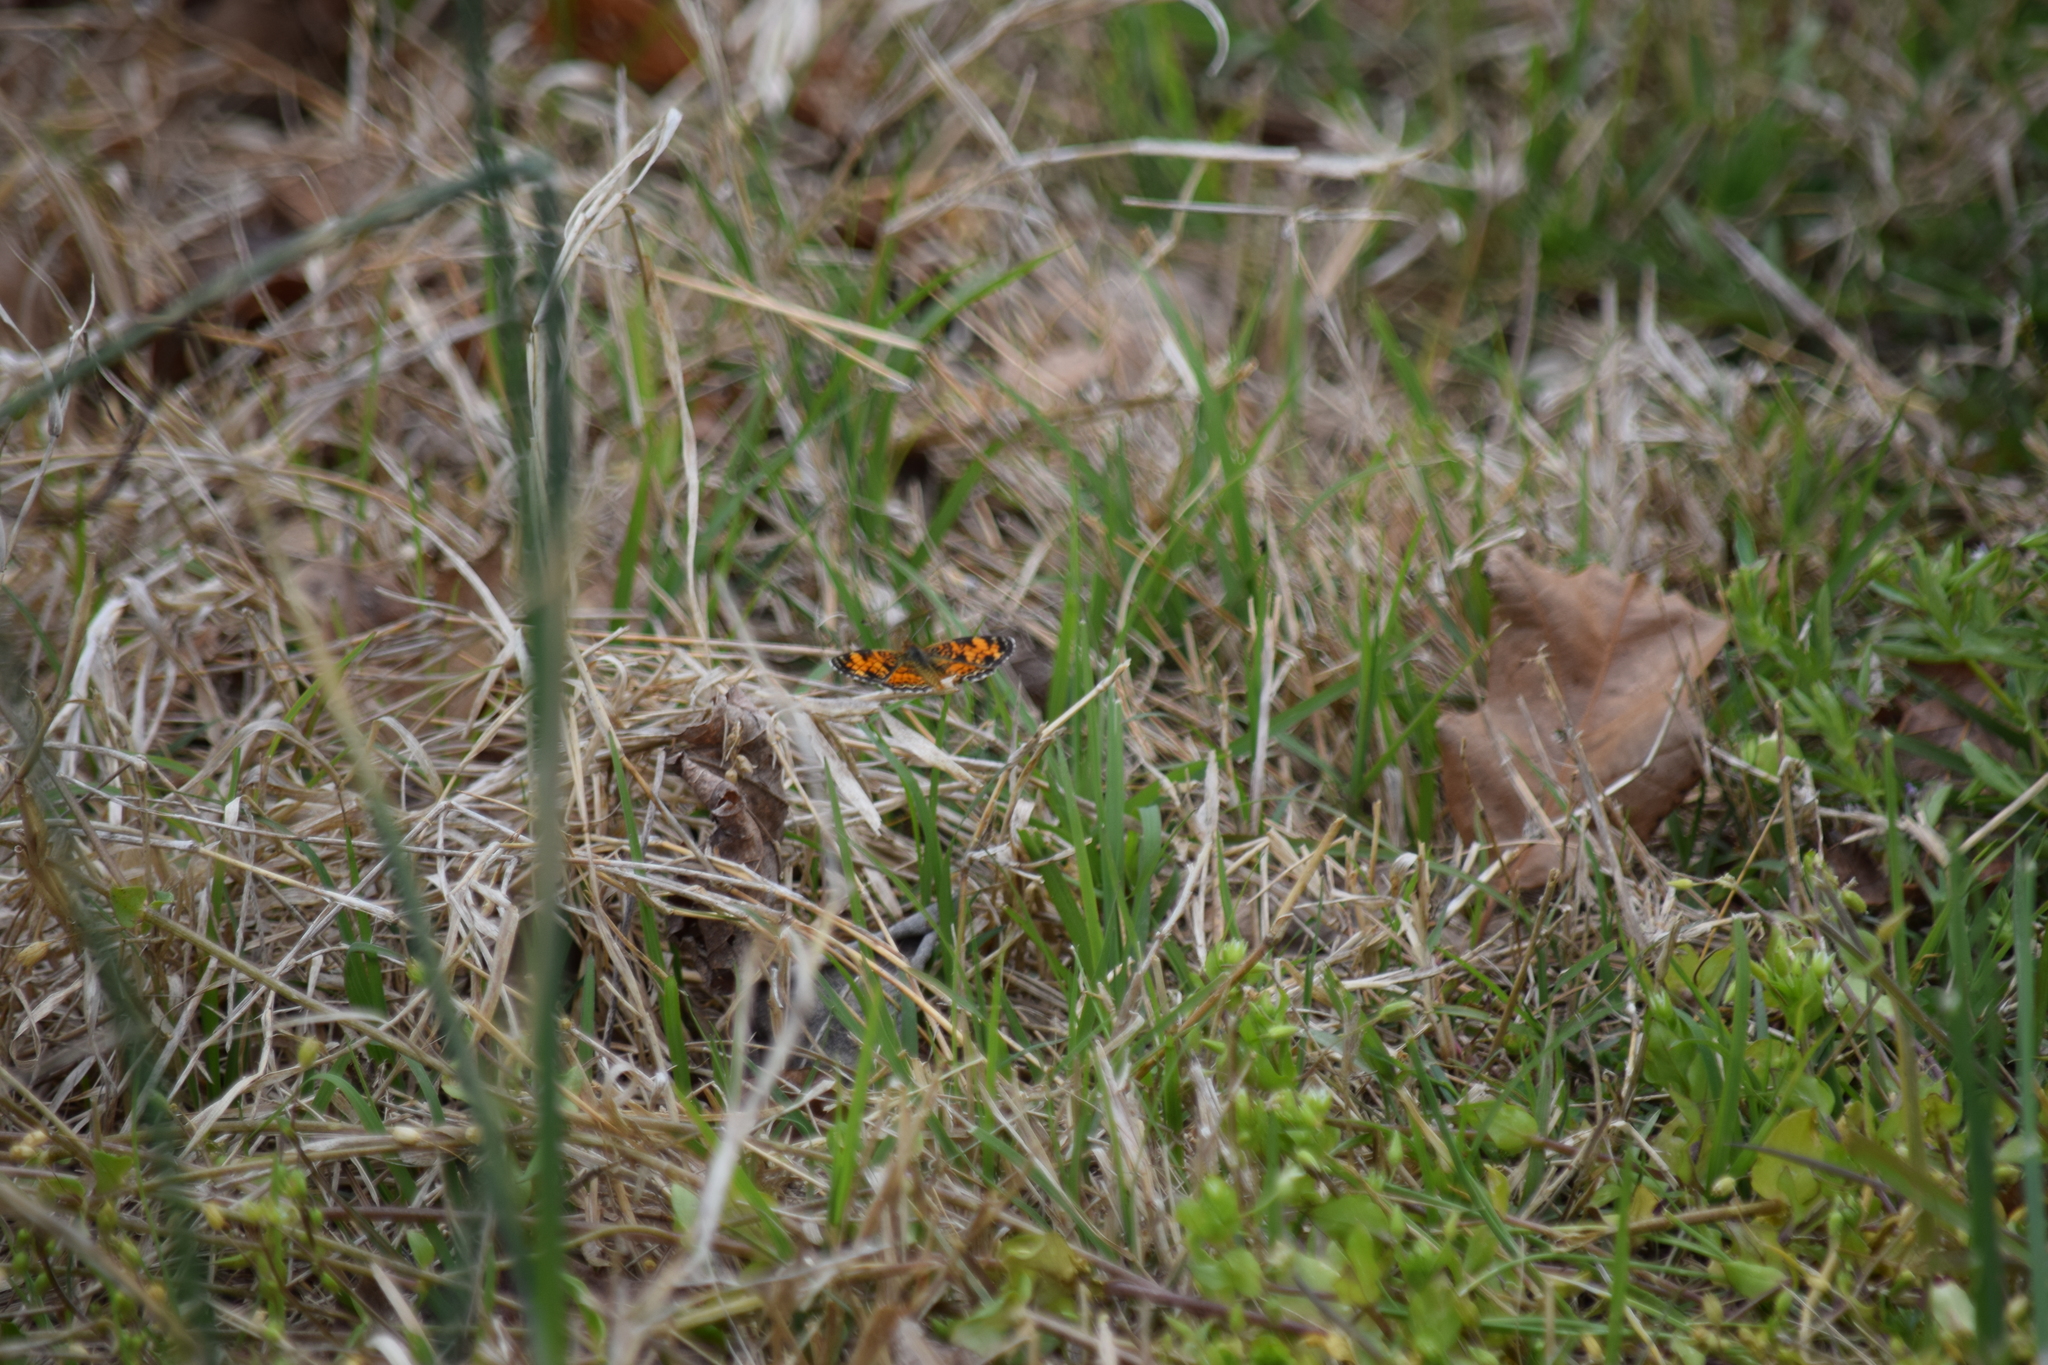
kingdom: Animalia
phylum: Arthropoda
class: Insecta
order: Lepidoptera
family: Nymphalidae
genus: Phyciodes
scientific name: Phyciodes tharos
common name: Pearl crescent
